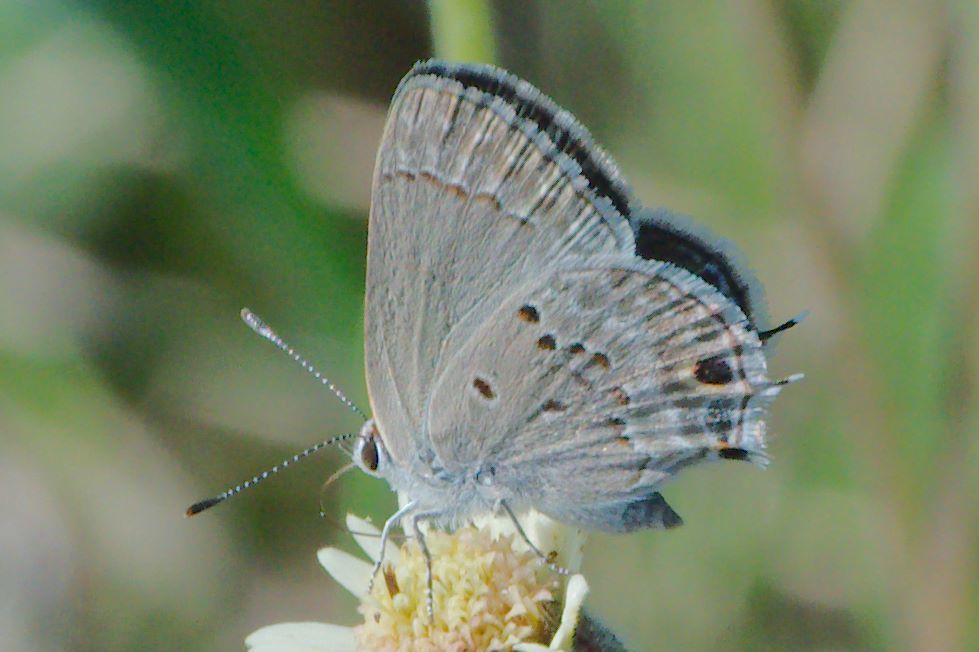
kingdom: Animalia
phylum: Arthropoda
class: Insecta
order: Lepidoptera
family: Lycaenidae
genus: Callicista
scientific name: Callicista columella
